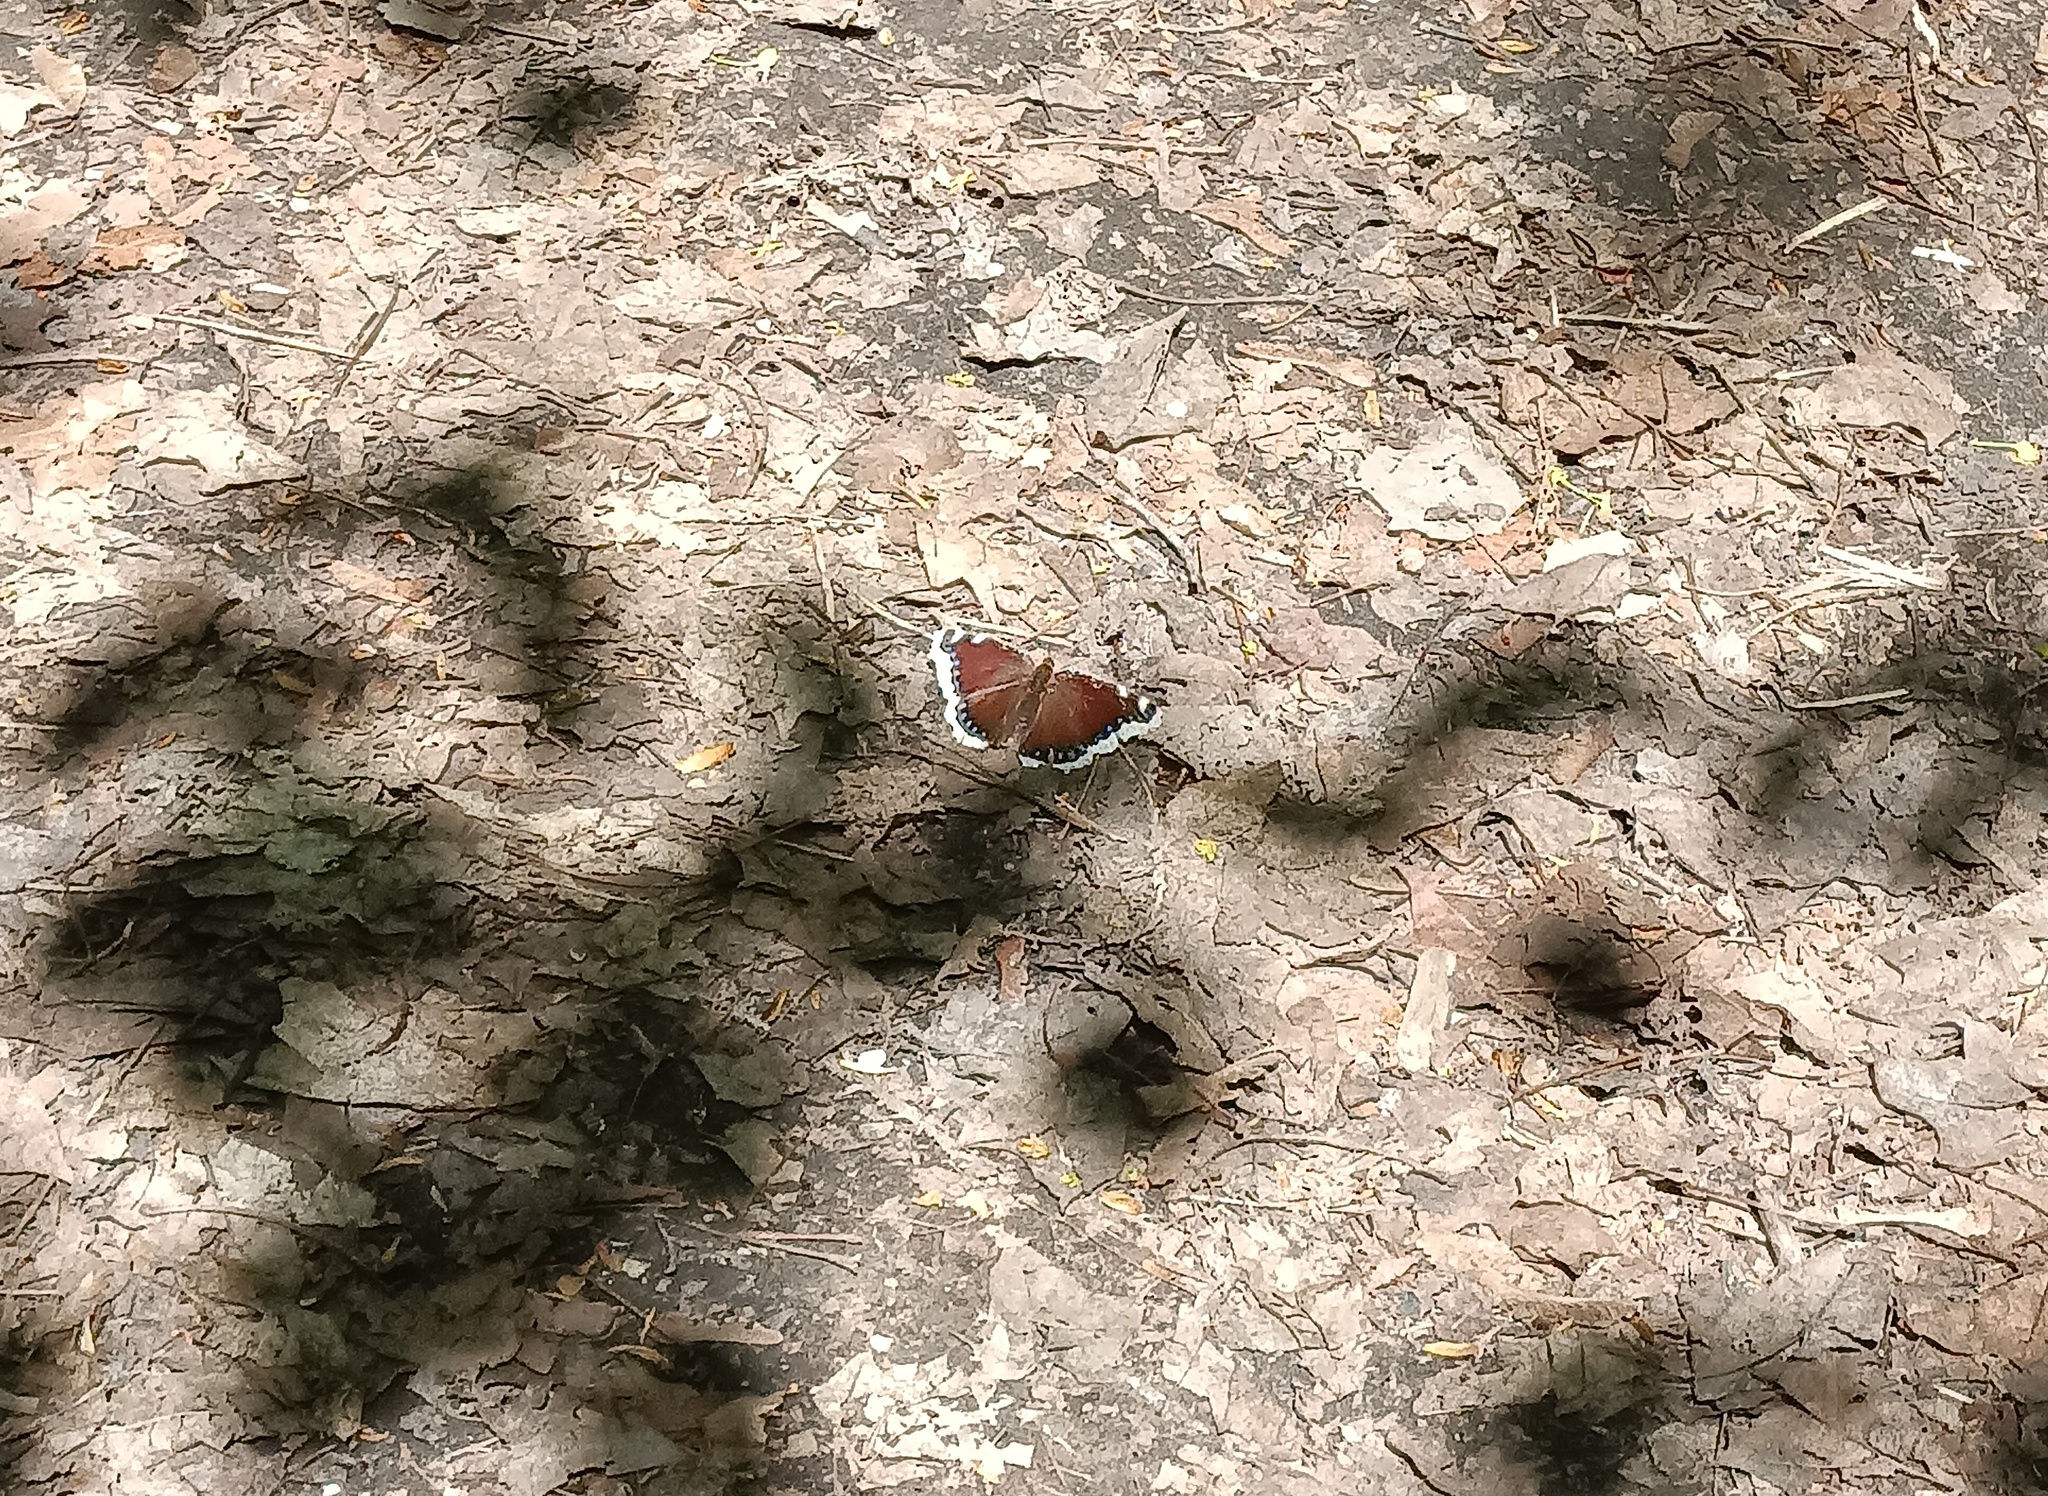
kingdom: Animalia
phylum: Arthropoda
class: Insecta
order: Lepidoptera
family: Nymphalidae
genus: Nymphalis
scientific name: Nymphalis antiopa
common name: Camberwell beauty
